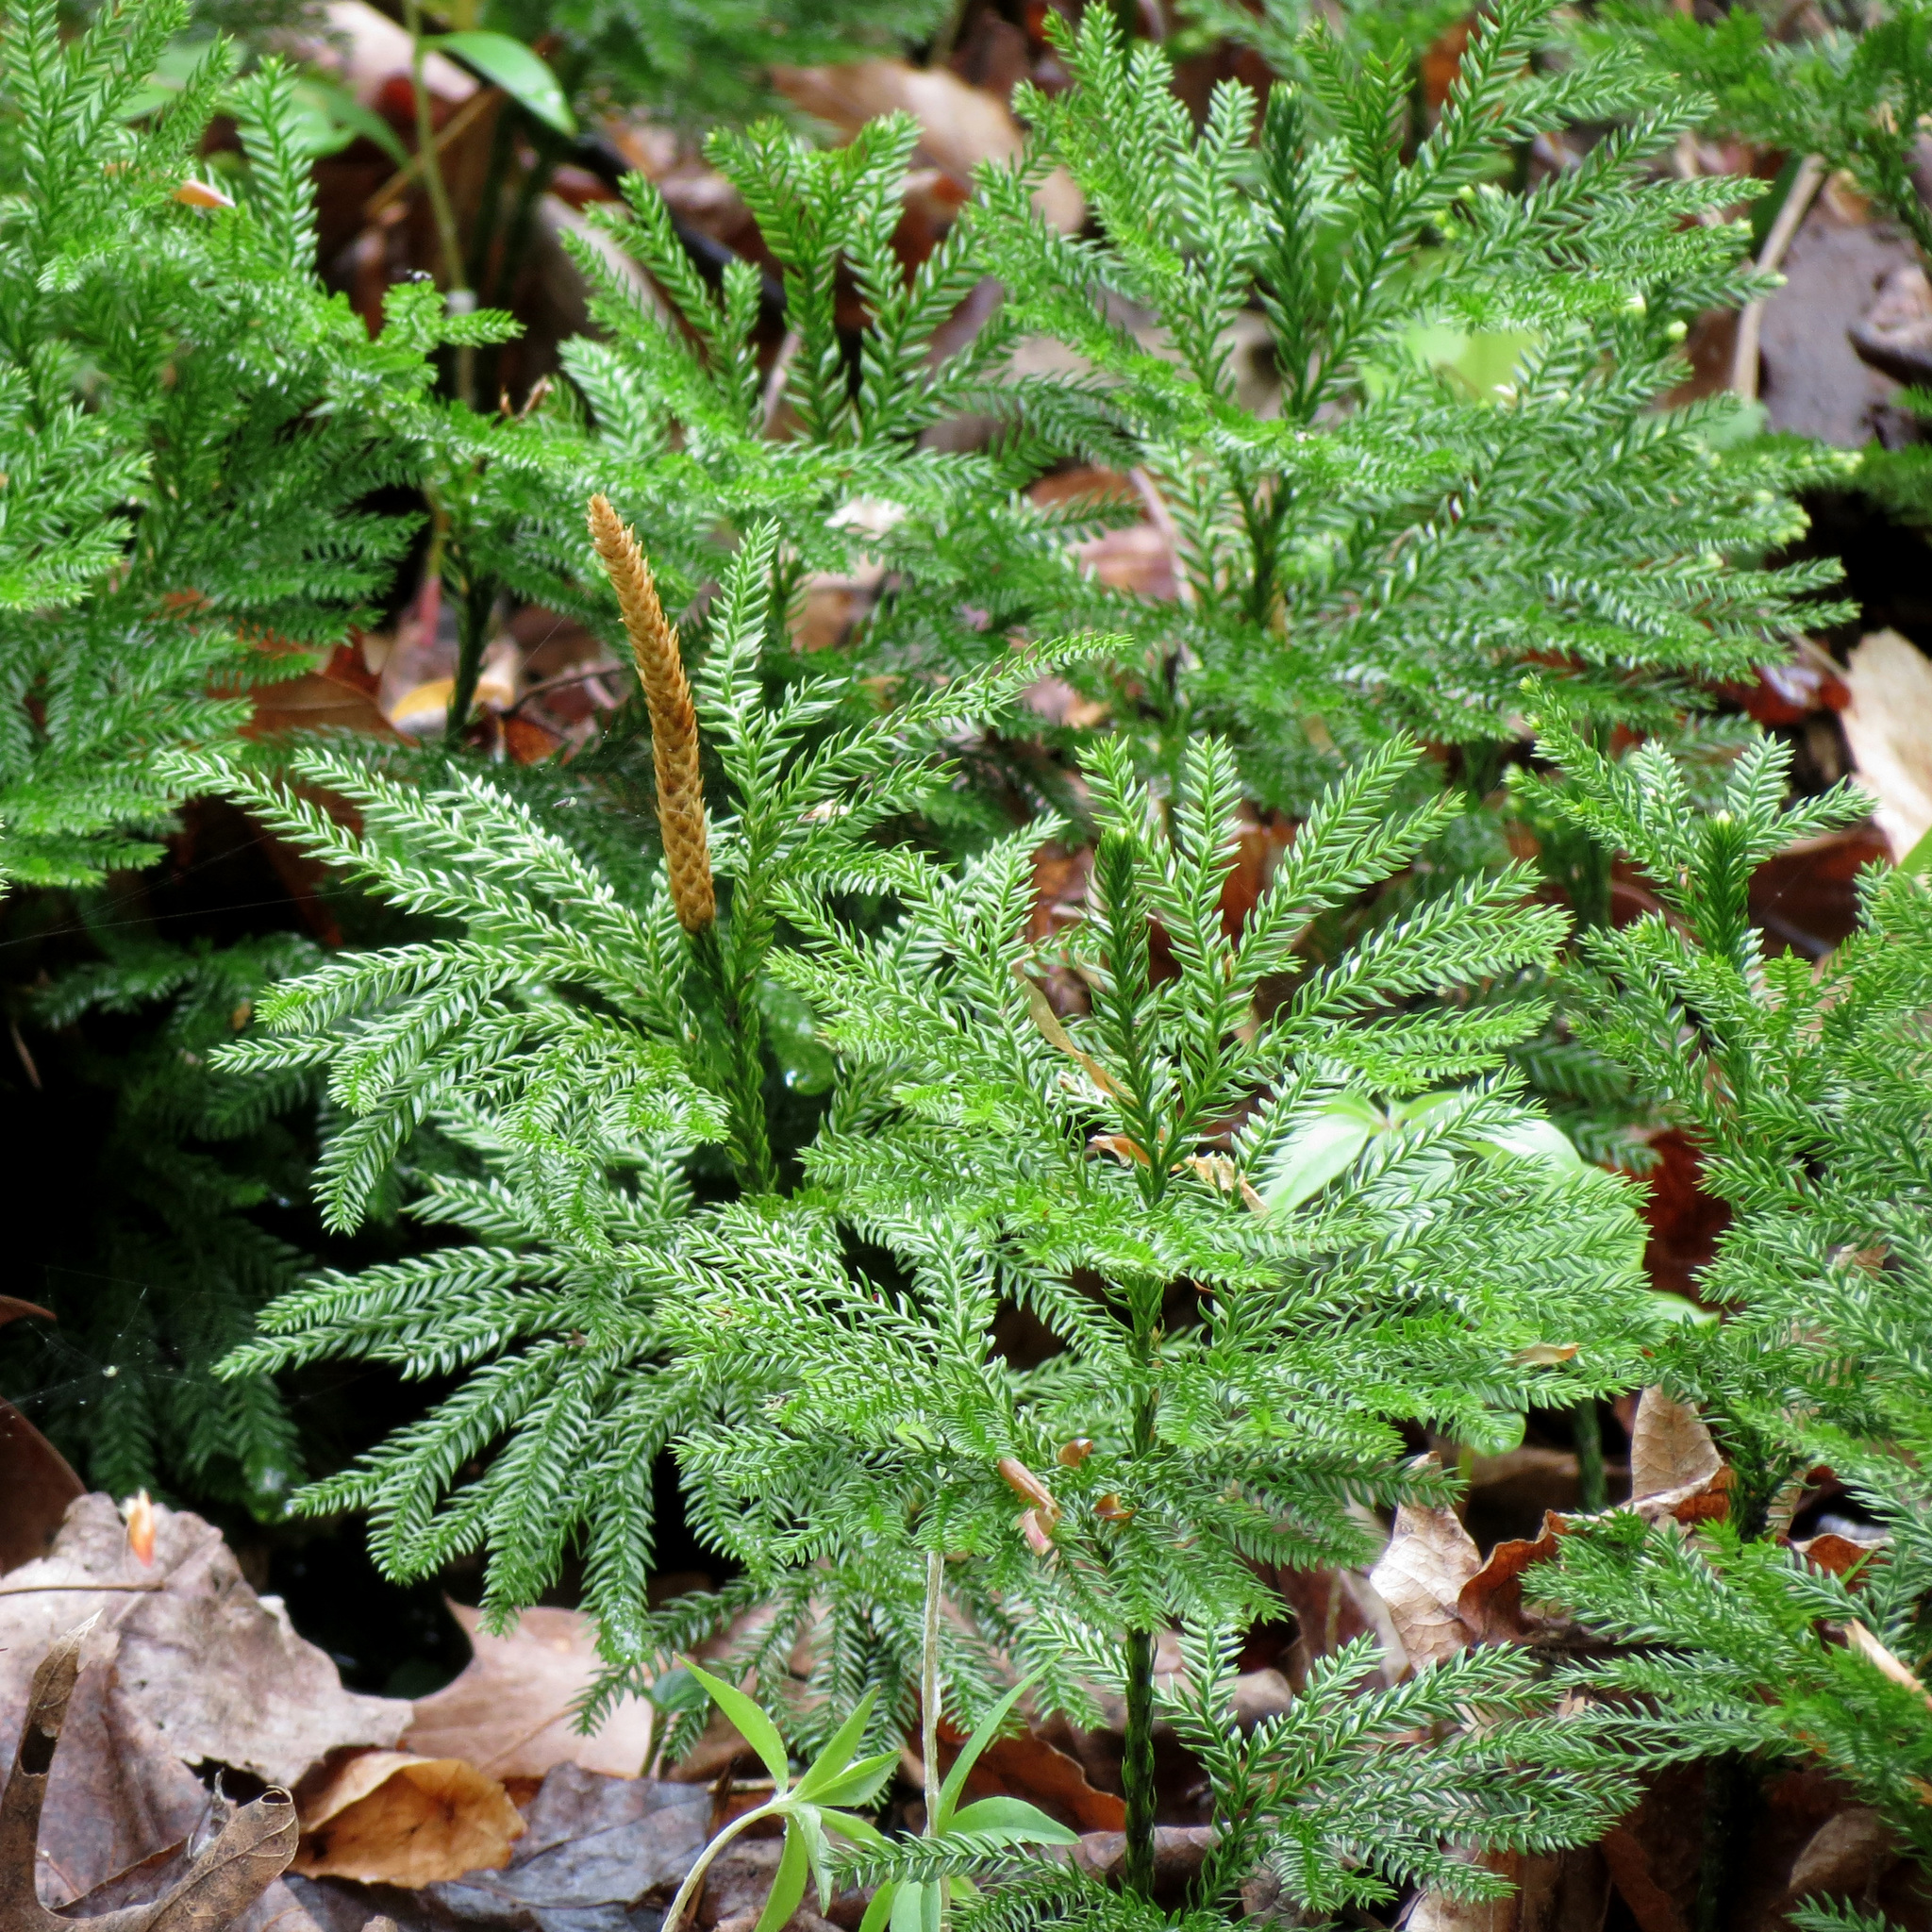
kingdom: Plantae
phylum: Tracheophyta
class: Lycopodiopsida
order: Lycopodiales
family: Lycopodiaceae
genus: Dendrolycopodium
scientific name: Dendrolycopodium obscurum
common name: Common ground-pine
